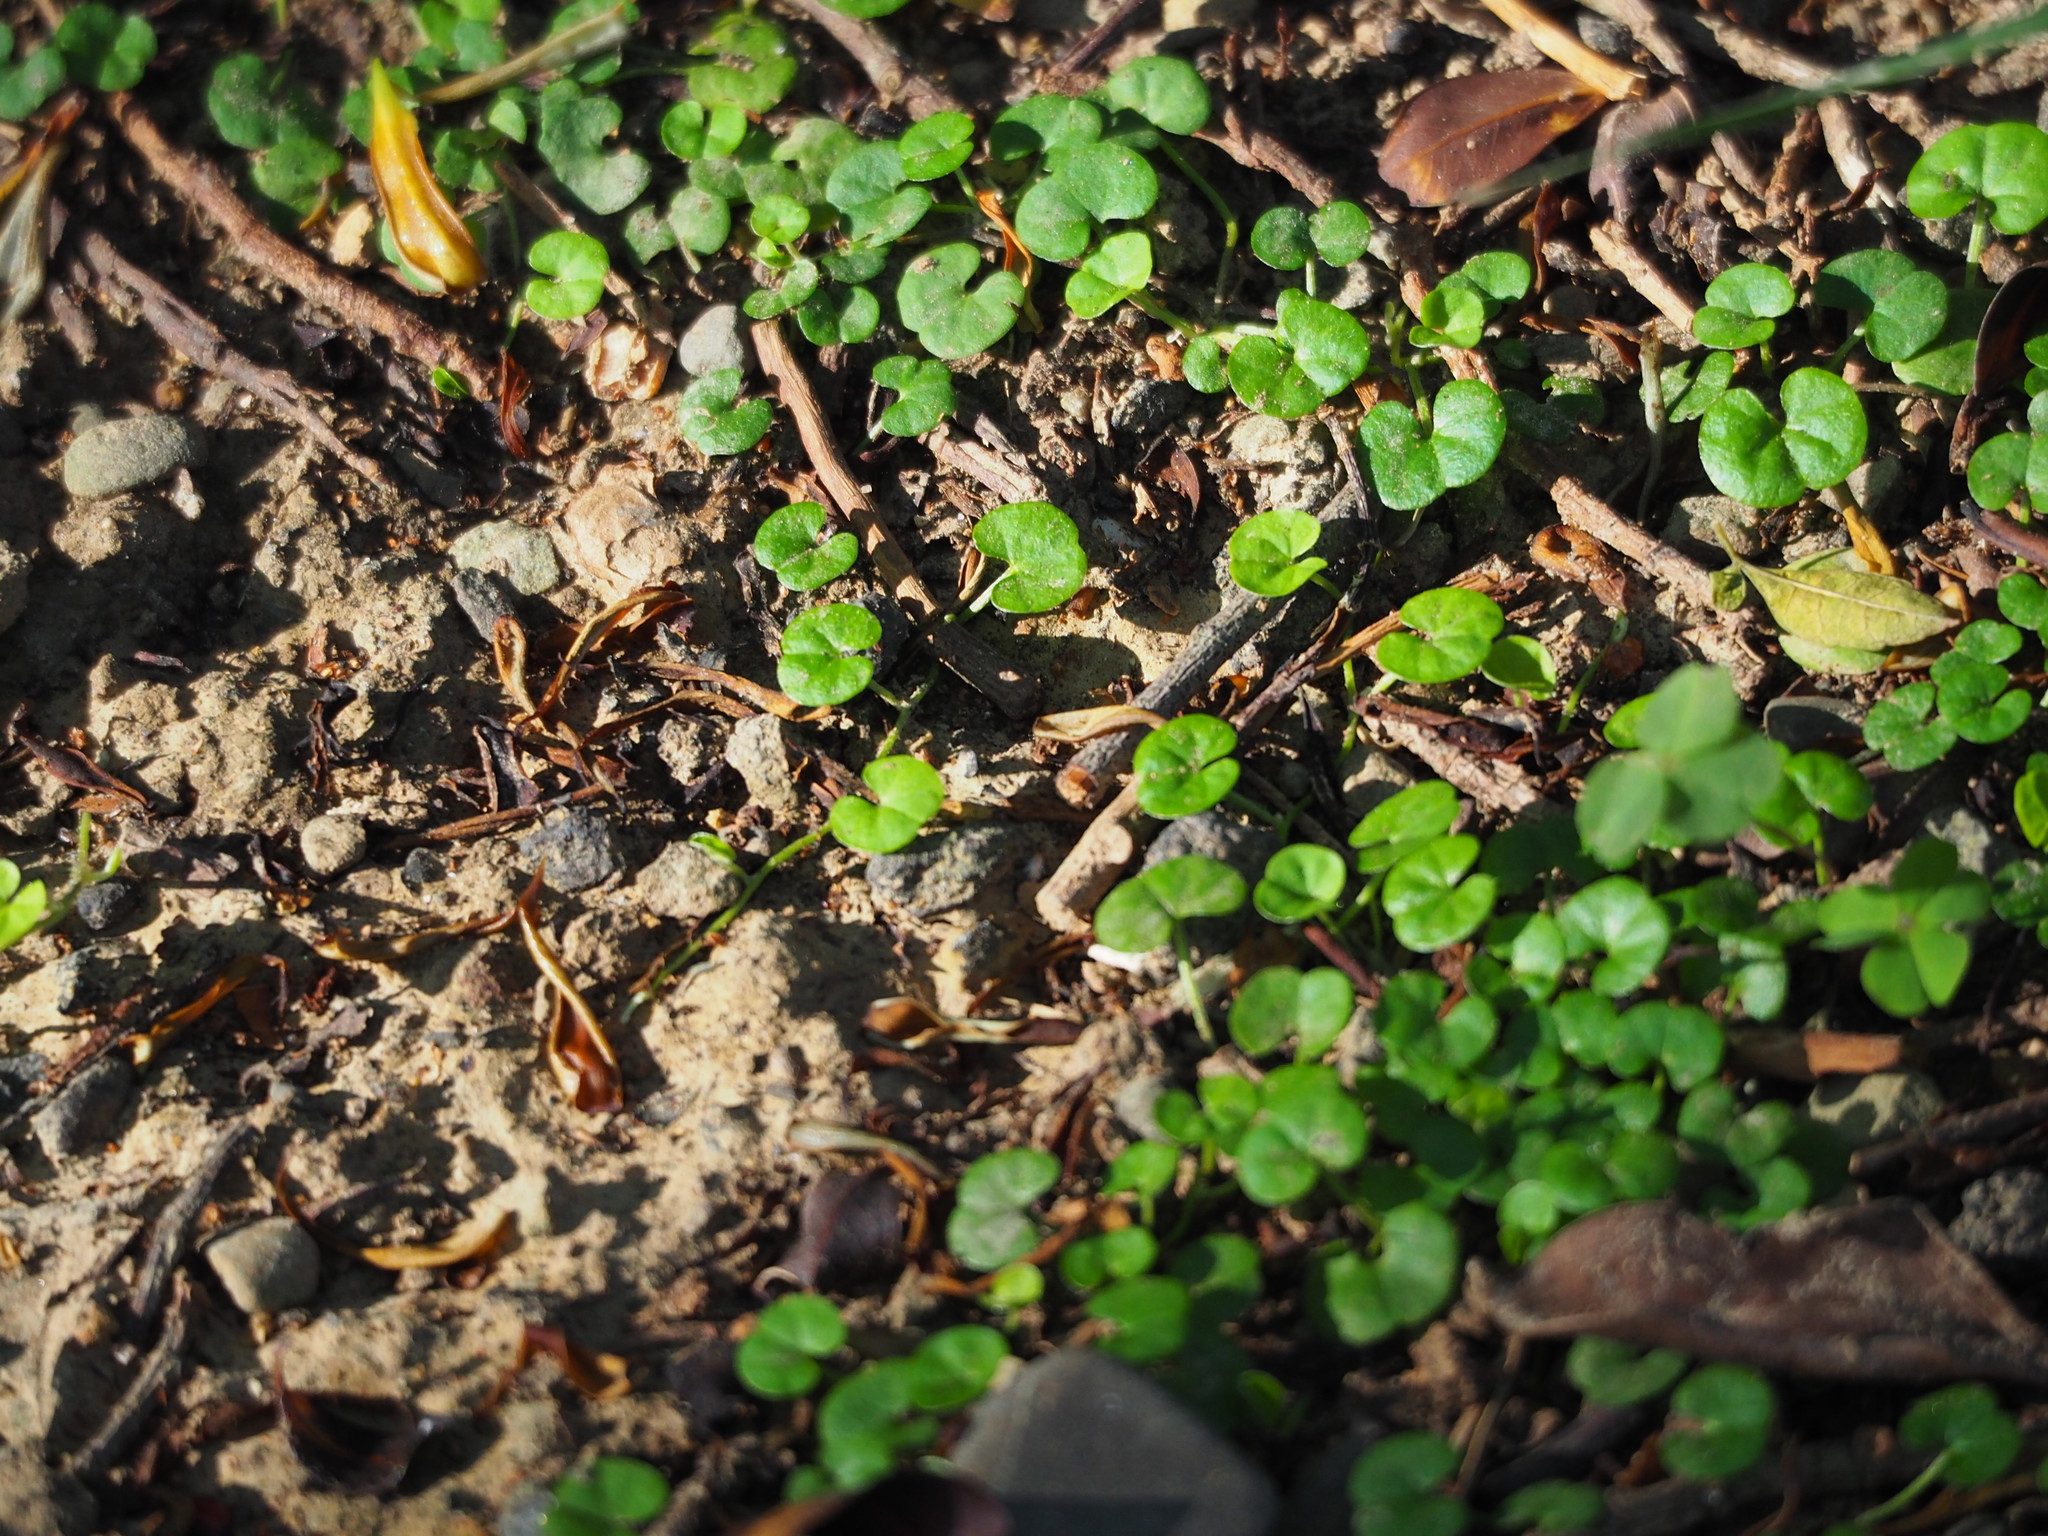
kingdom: Plantae
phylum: Tracheophyta
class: Magnoliopsida
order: Solanales
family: Convolvulaceae
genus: Dichondra
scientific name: Dichondra micrantha
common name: Kidneyweed
